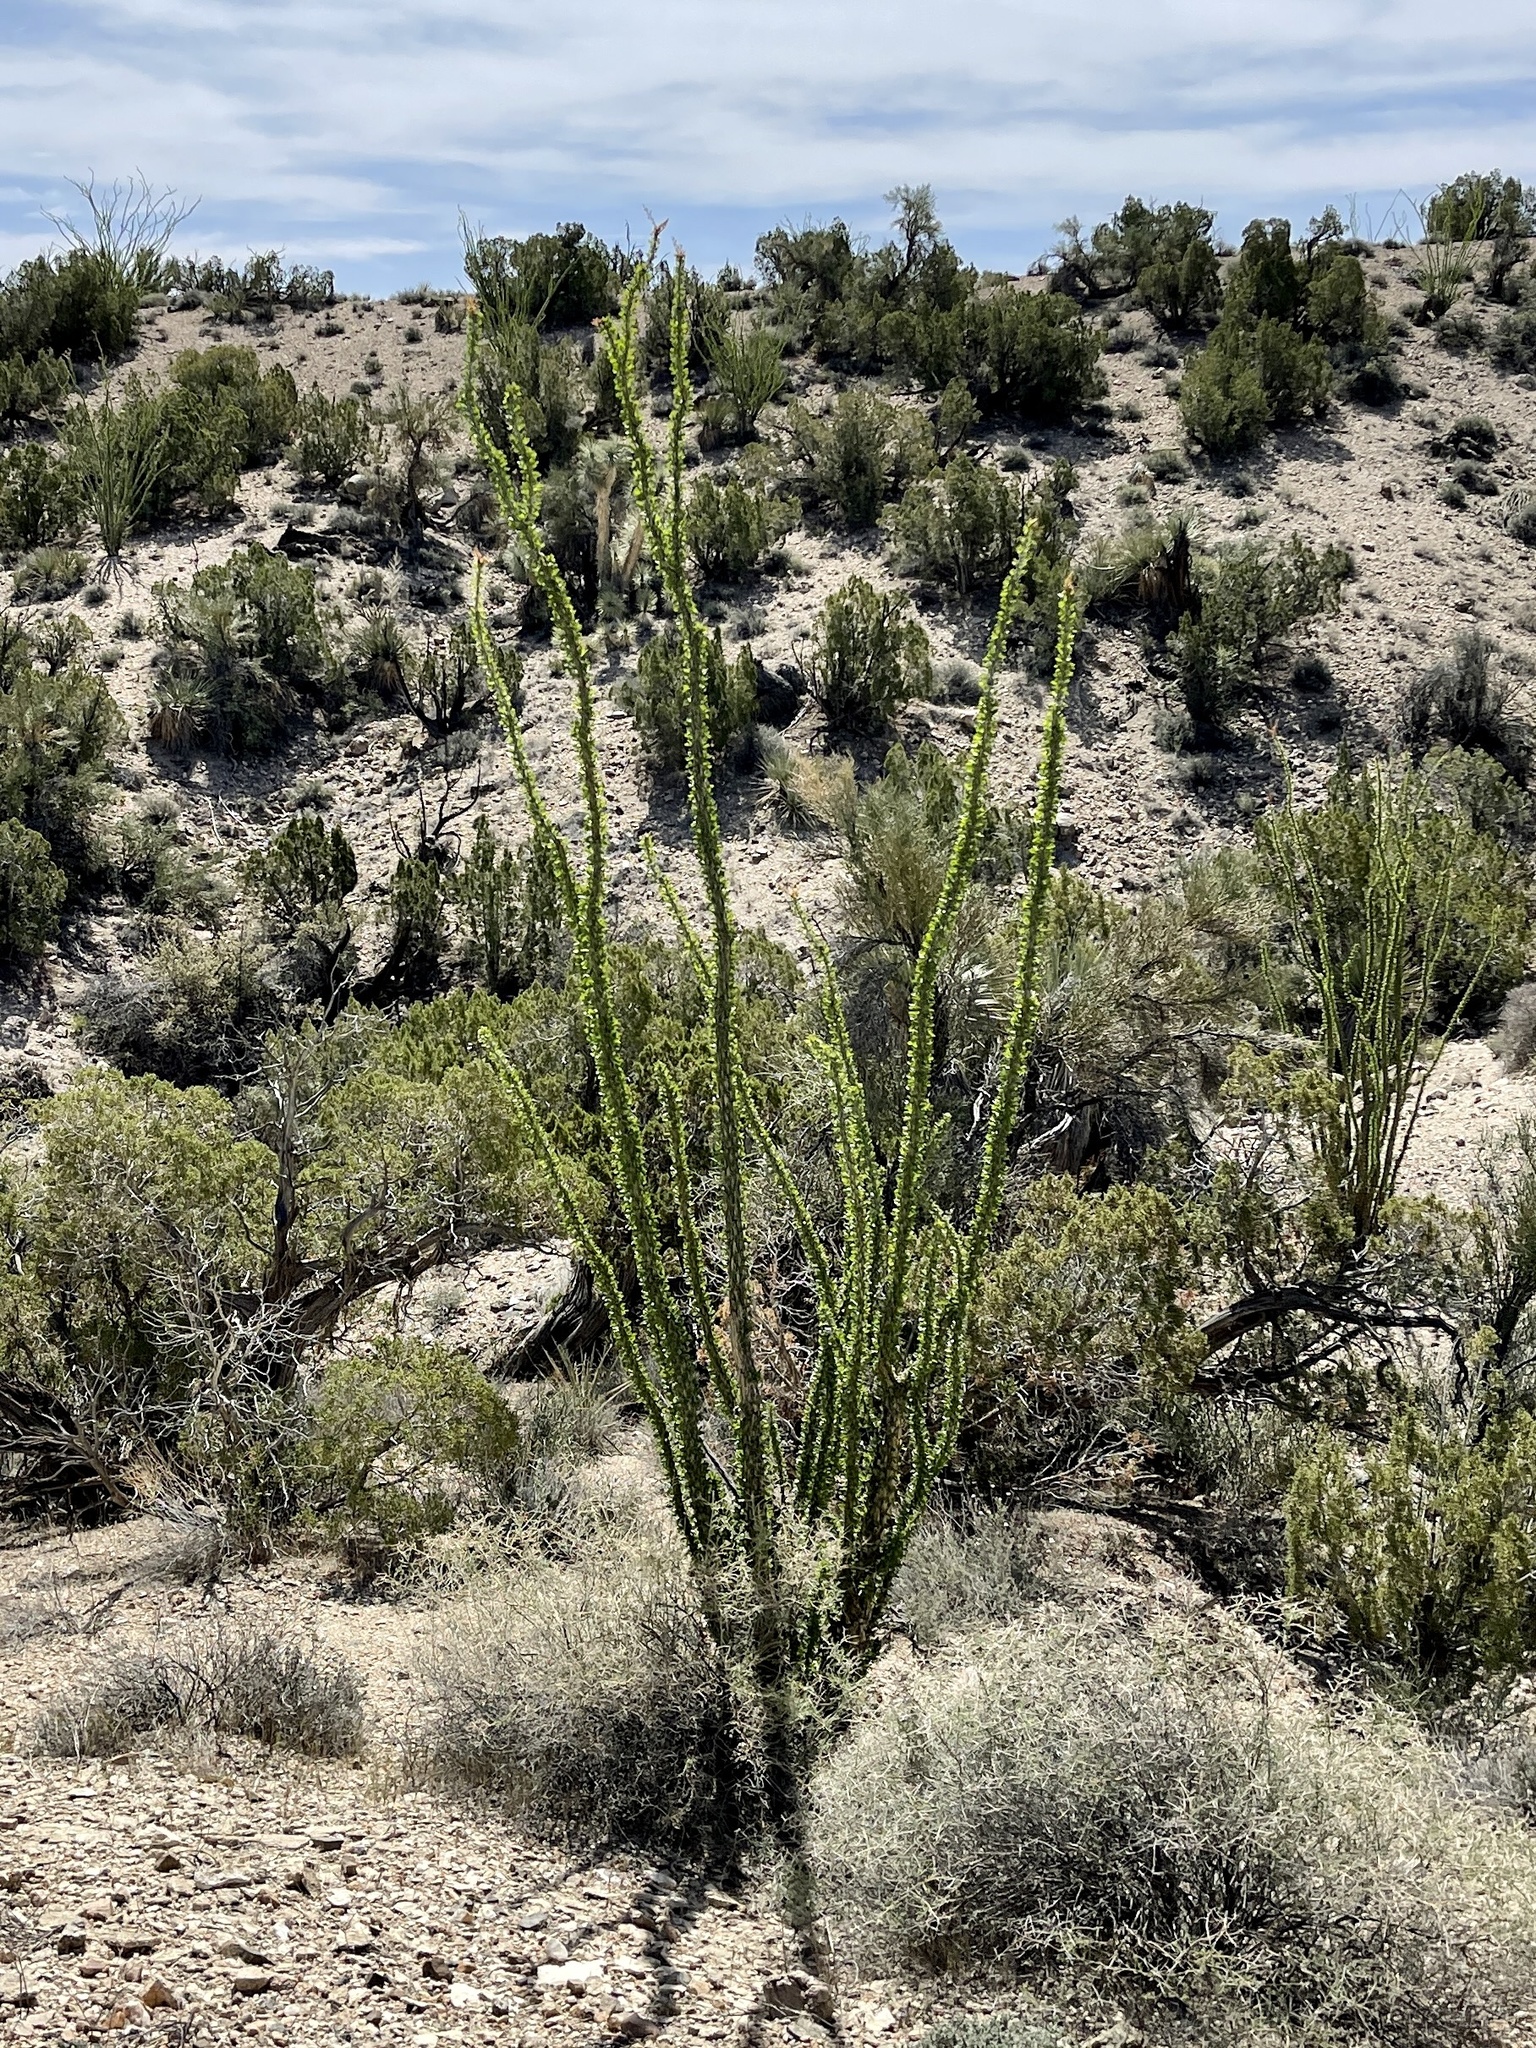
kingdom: Plantae
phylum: Tracheophyta
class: Magnoliopsida
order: Ericales
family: Fouquieriaceae
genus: Fouquieria
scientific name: Fouquieria splendens
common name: Vine-cactus
